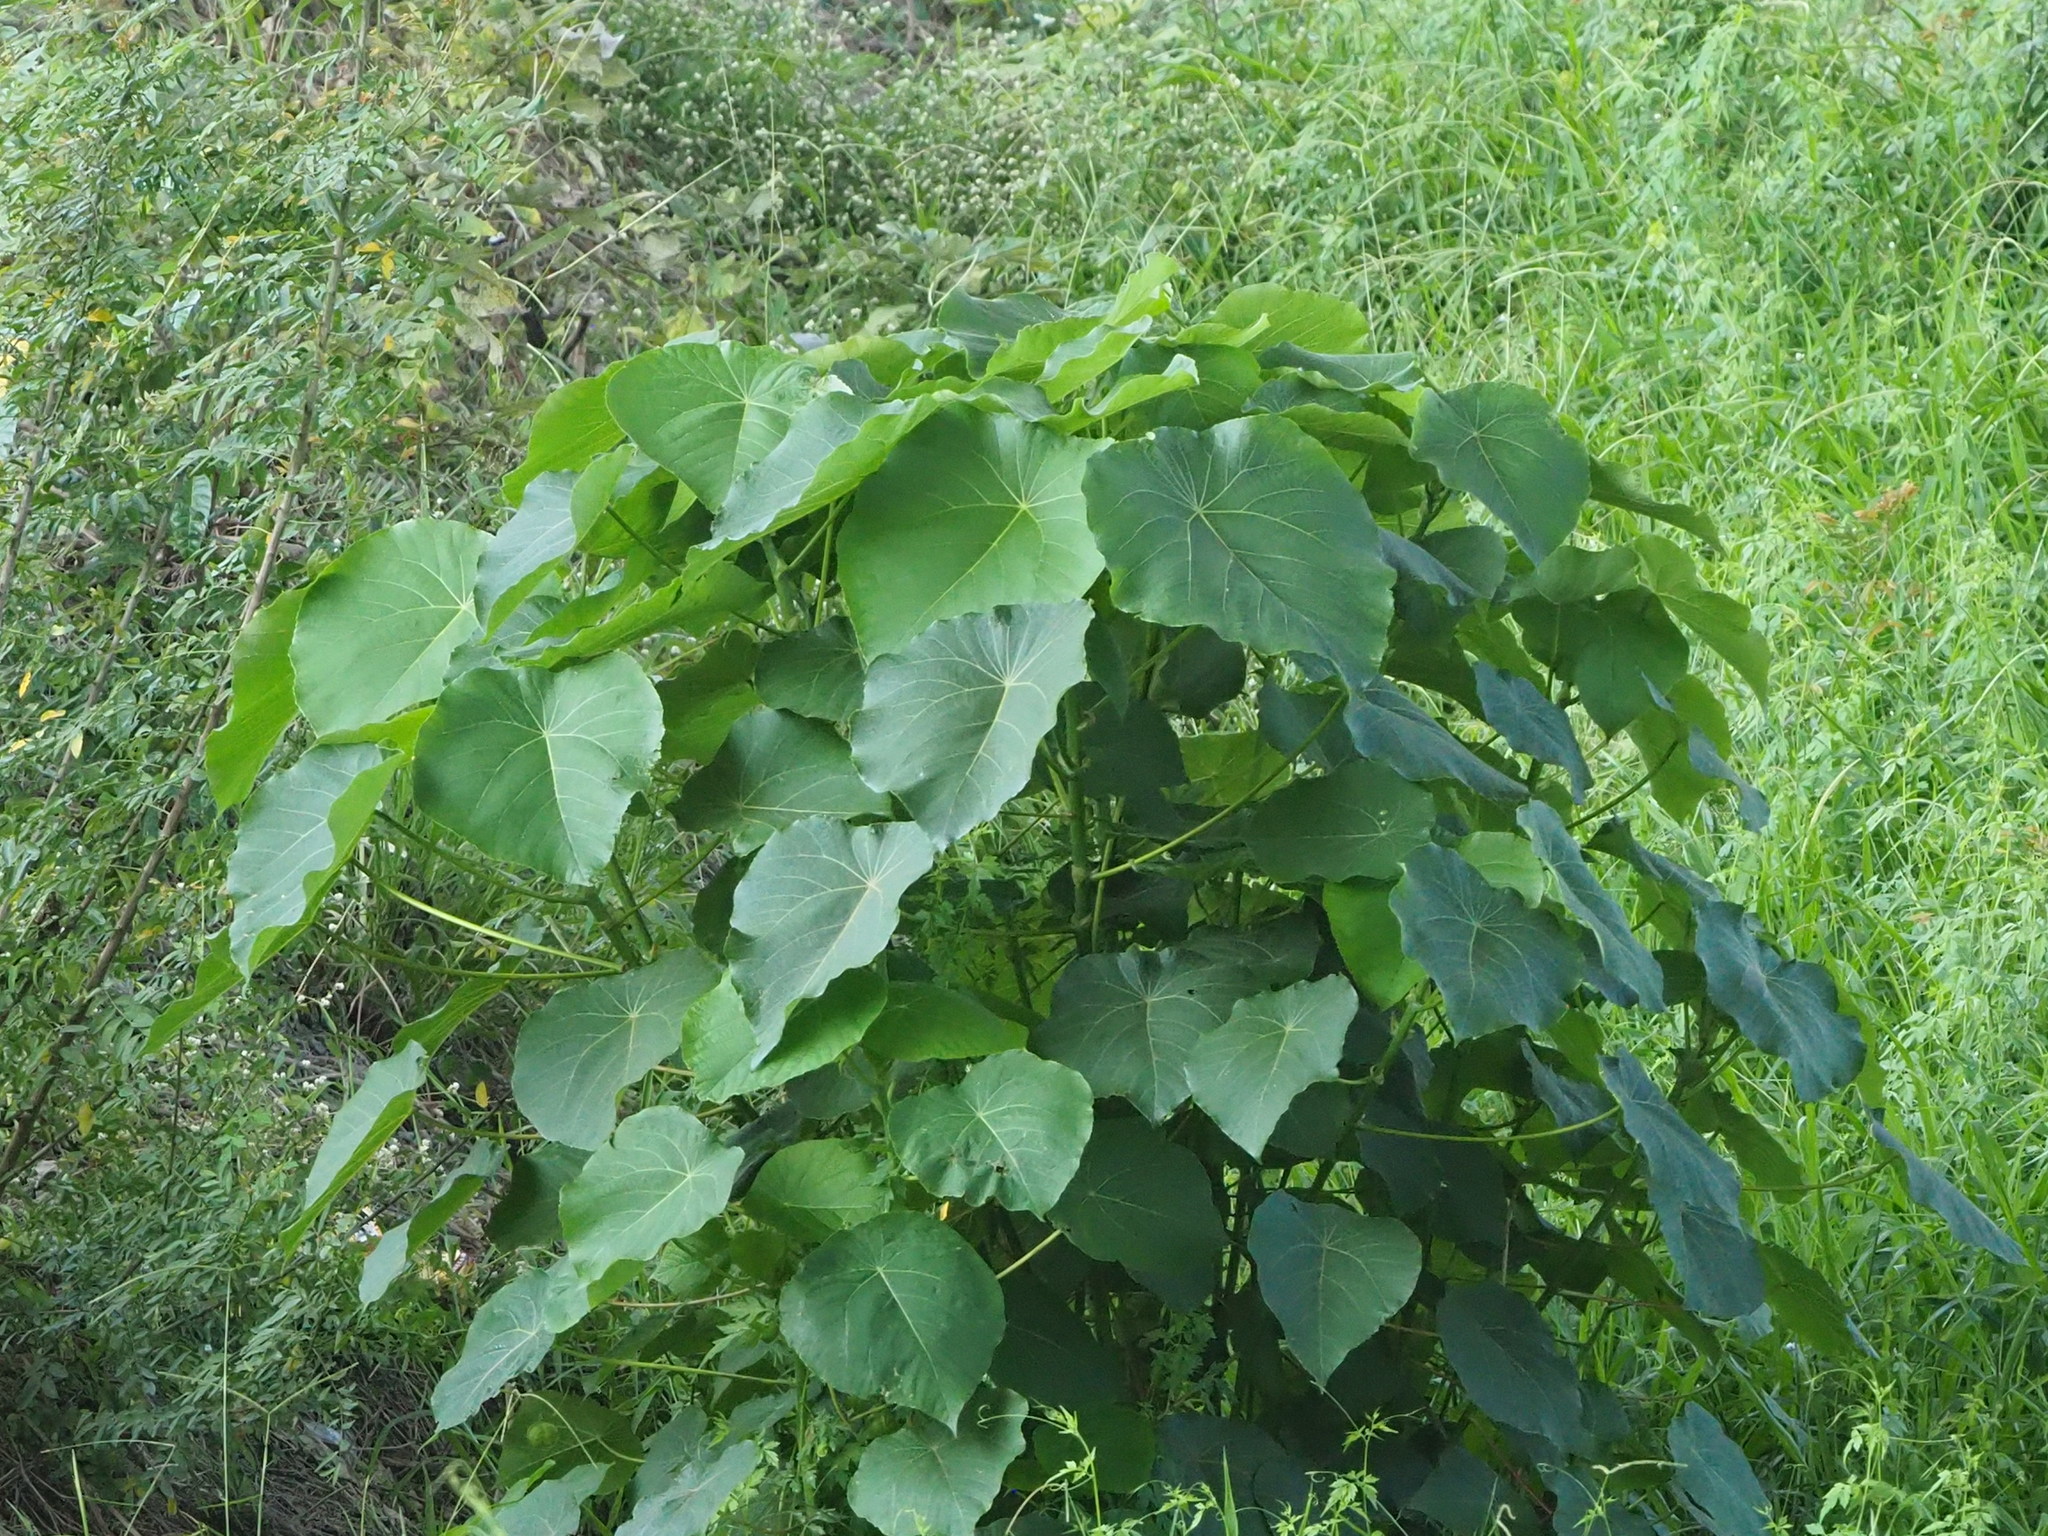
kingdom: Plantae
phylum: Tracheophyta
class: Magnoliopsida
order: Malpighiales
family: Euphorbiaceae
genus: Macaranga
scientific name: Macaranga tanarius
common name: Parasol leaf tree
